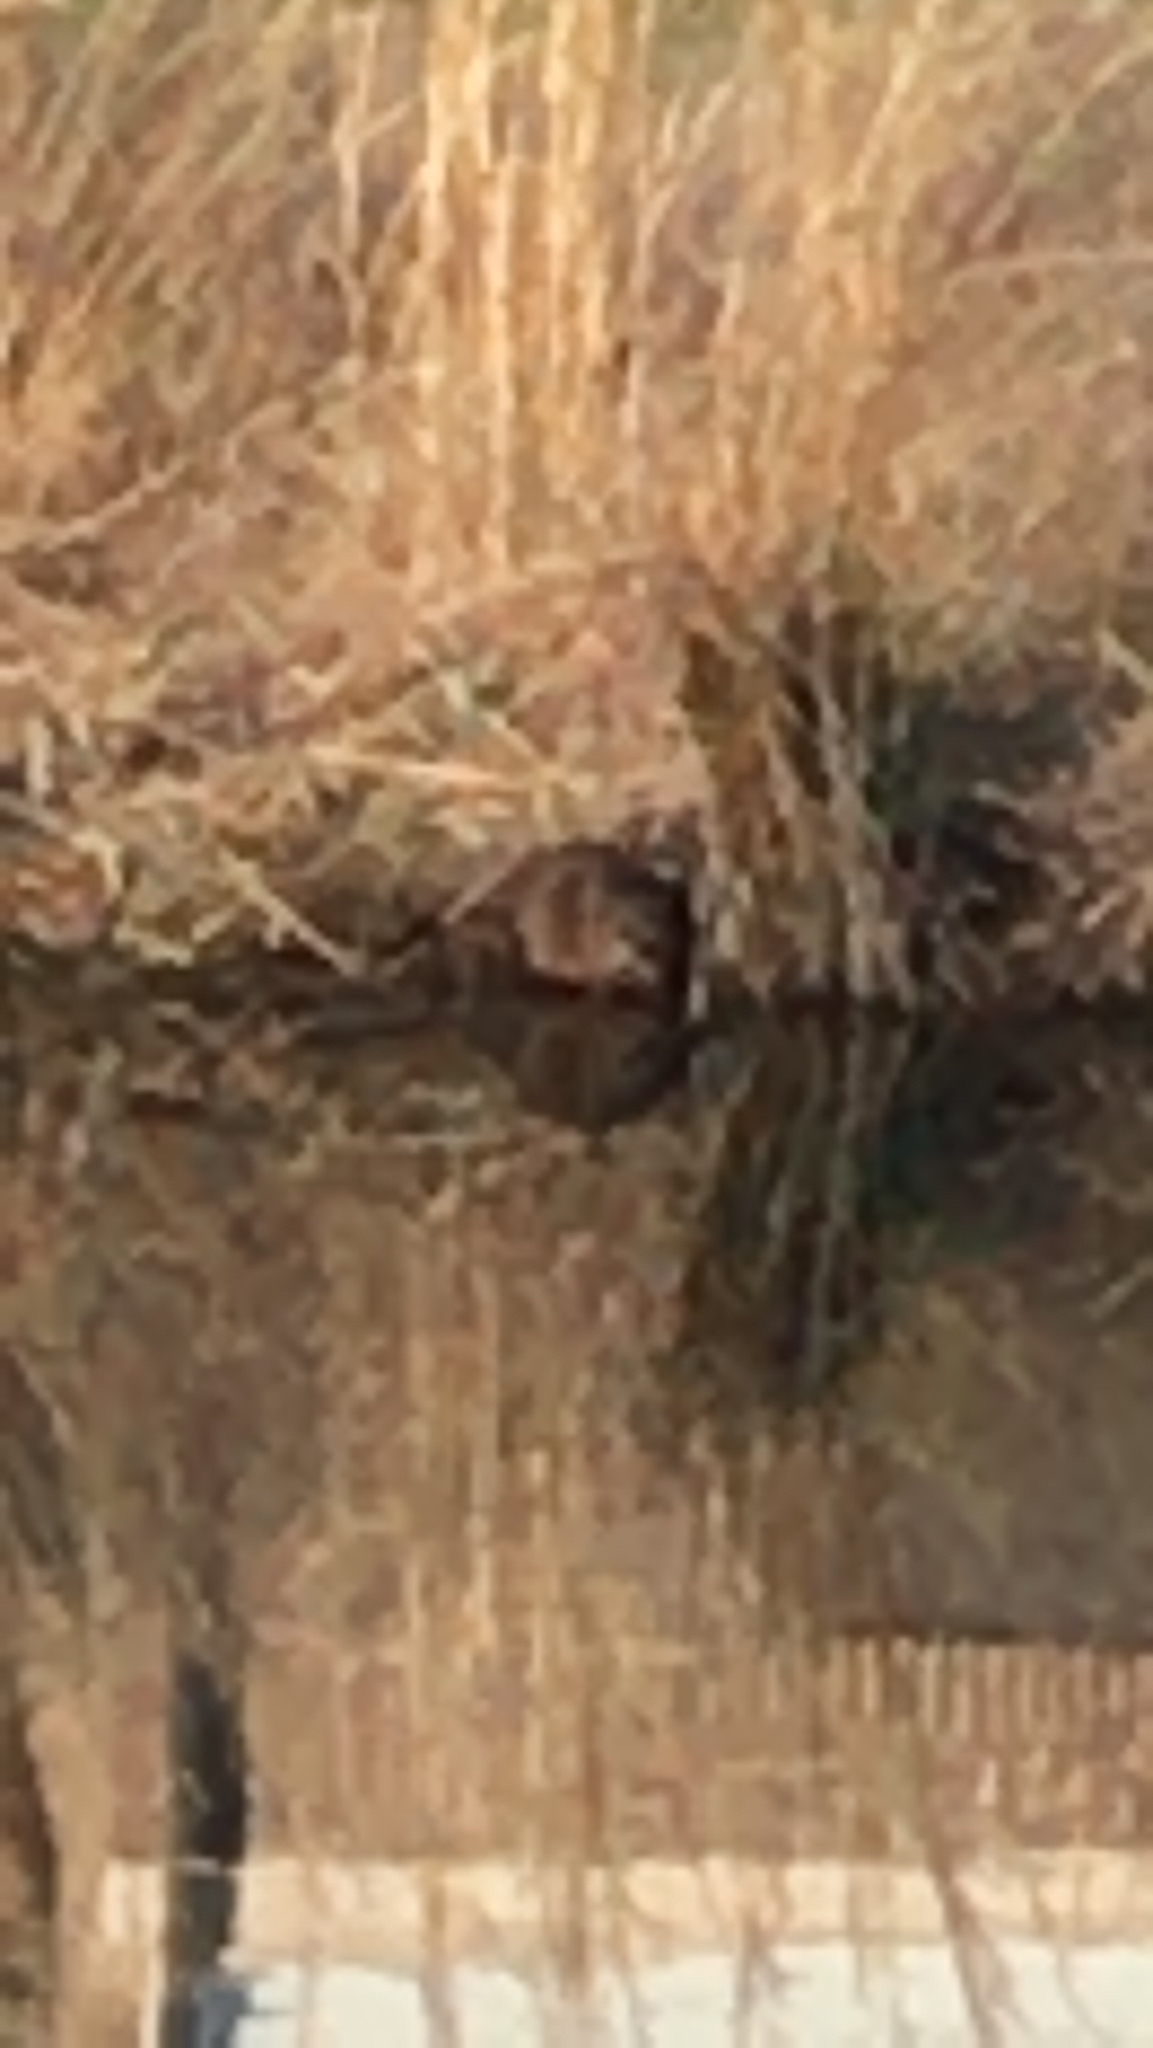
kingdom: Animalia
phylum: Chordata
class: Mammalia
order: Rodentia
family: Cricetidae
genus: Ondatra
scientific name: Ondatra zibethicus
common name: Muskrat
